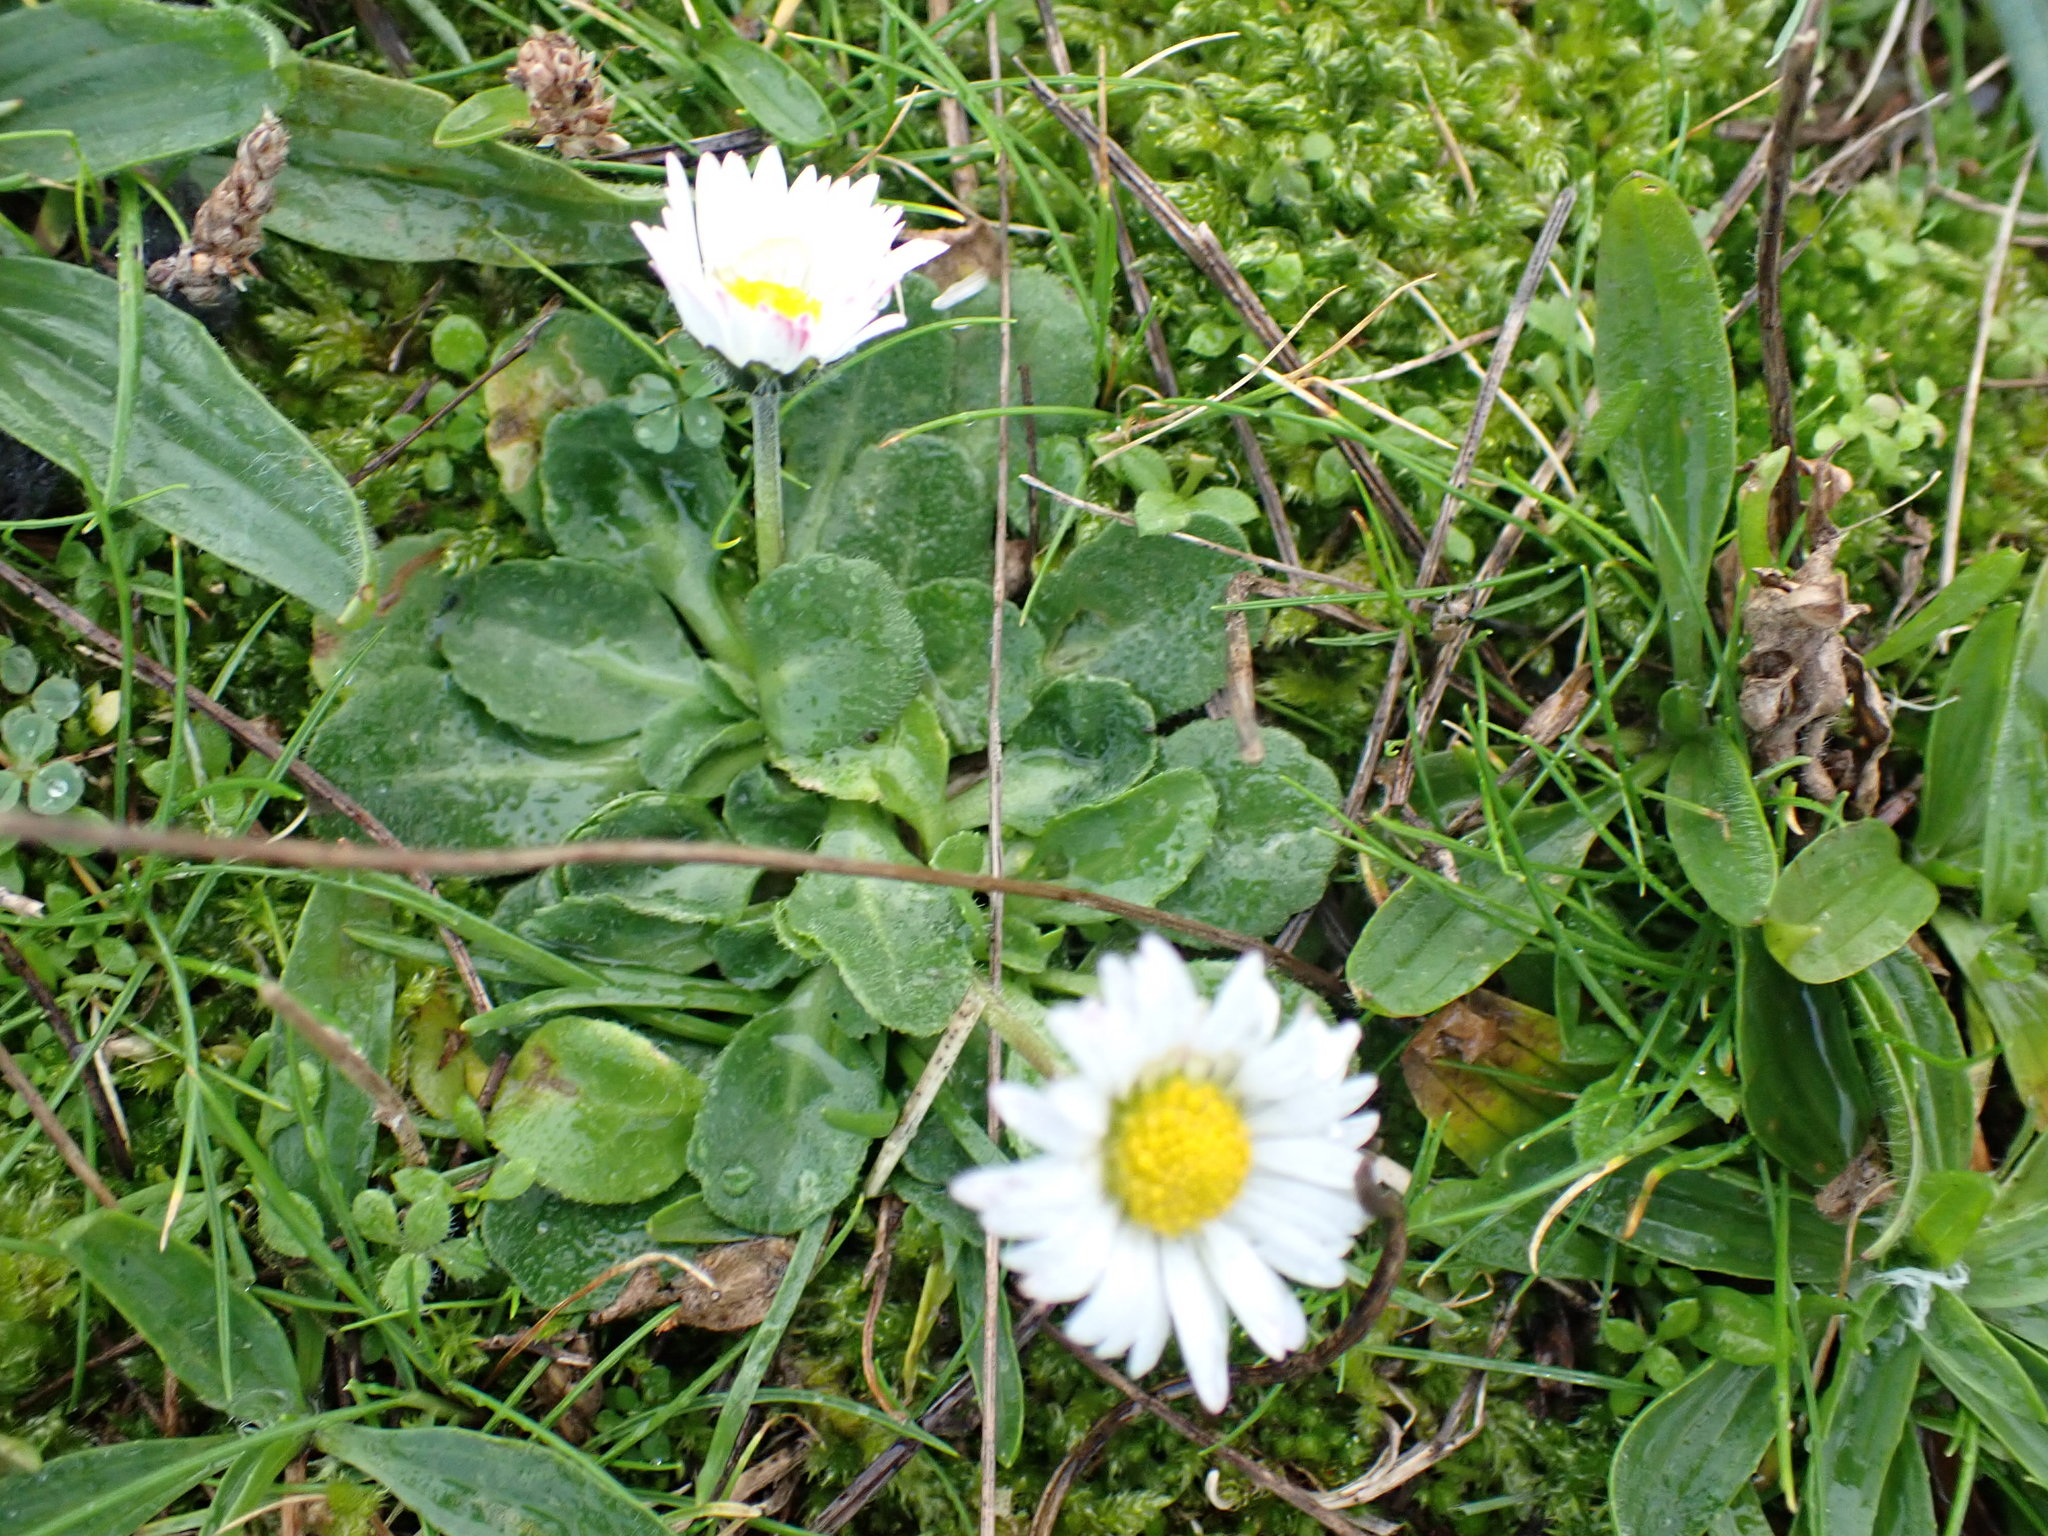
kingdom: Plantae
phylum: Tracheophyta
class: Magnoliopsida
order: Asterales
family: Asteraceae
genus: Bellis
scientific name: Bellis perennis
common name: Lawndaisy
